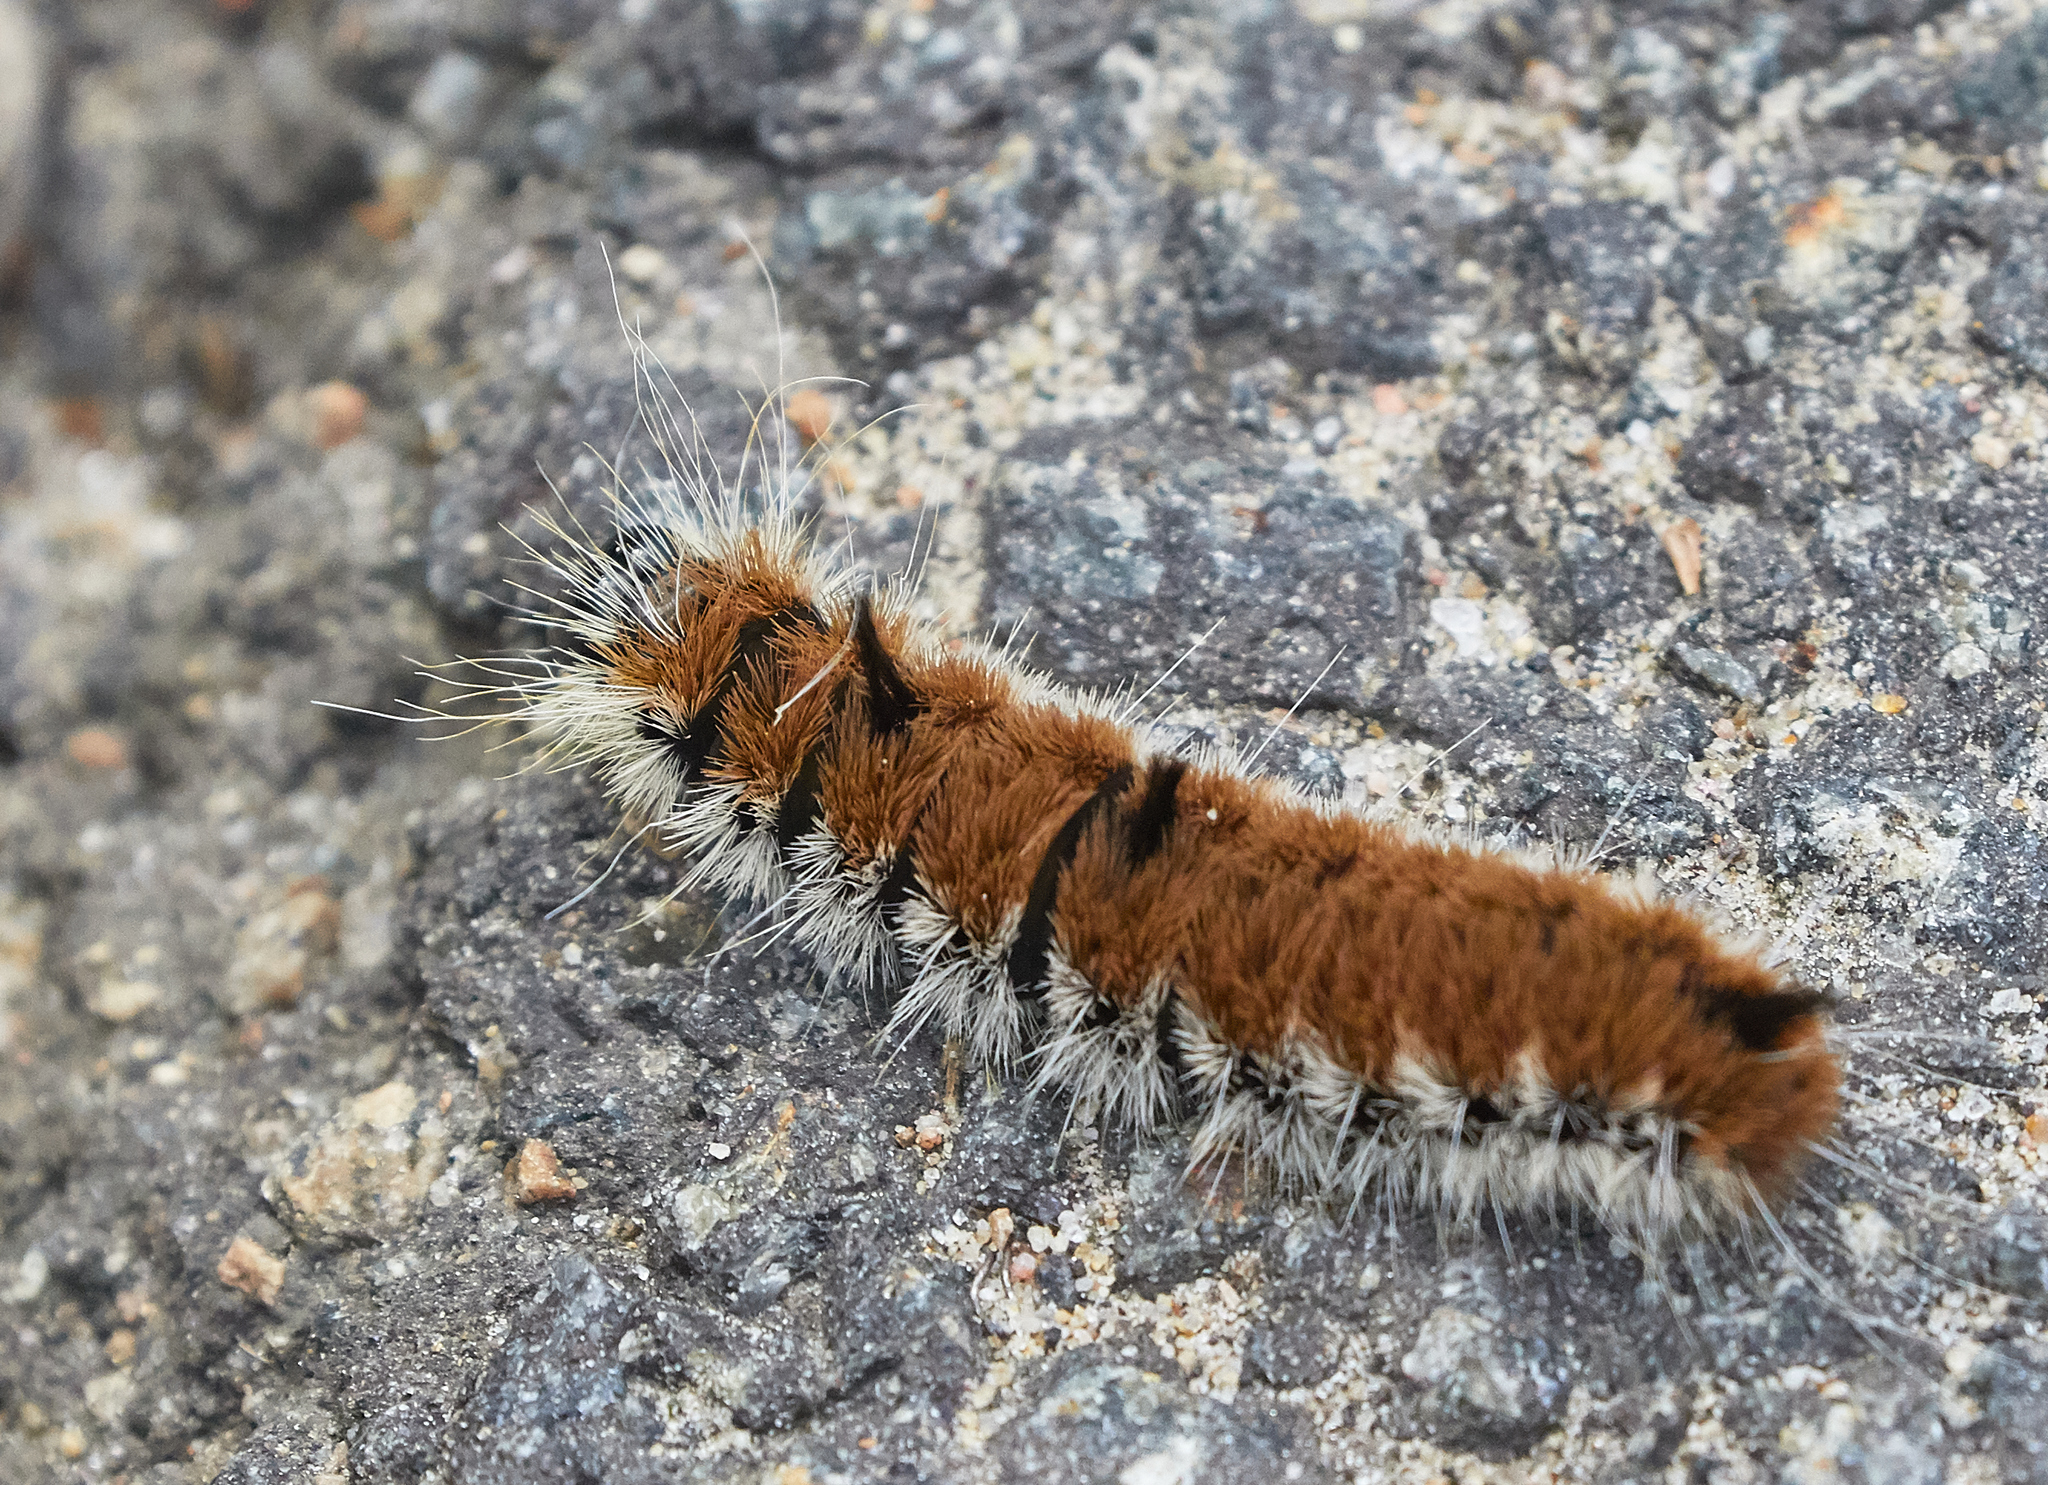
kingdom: Animalia
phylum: Arthropoda
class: Insecta
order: Lepidoptera
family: Noctuidae
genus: Acronicta
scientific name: Acronicta insita
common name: Large gray dagger
